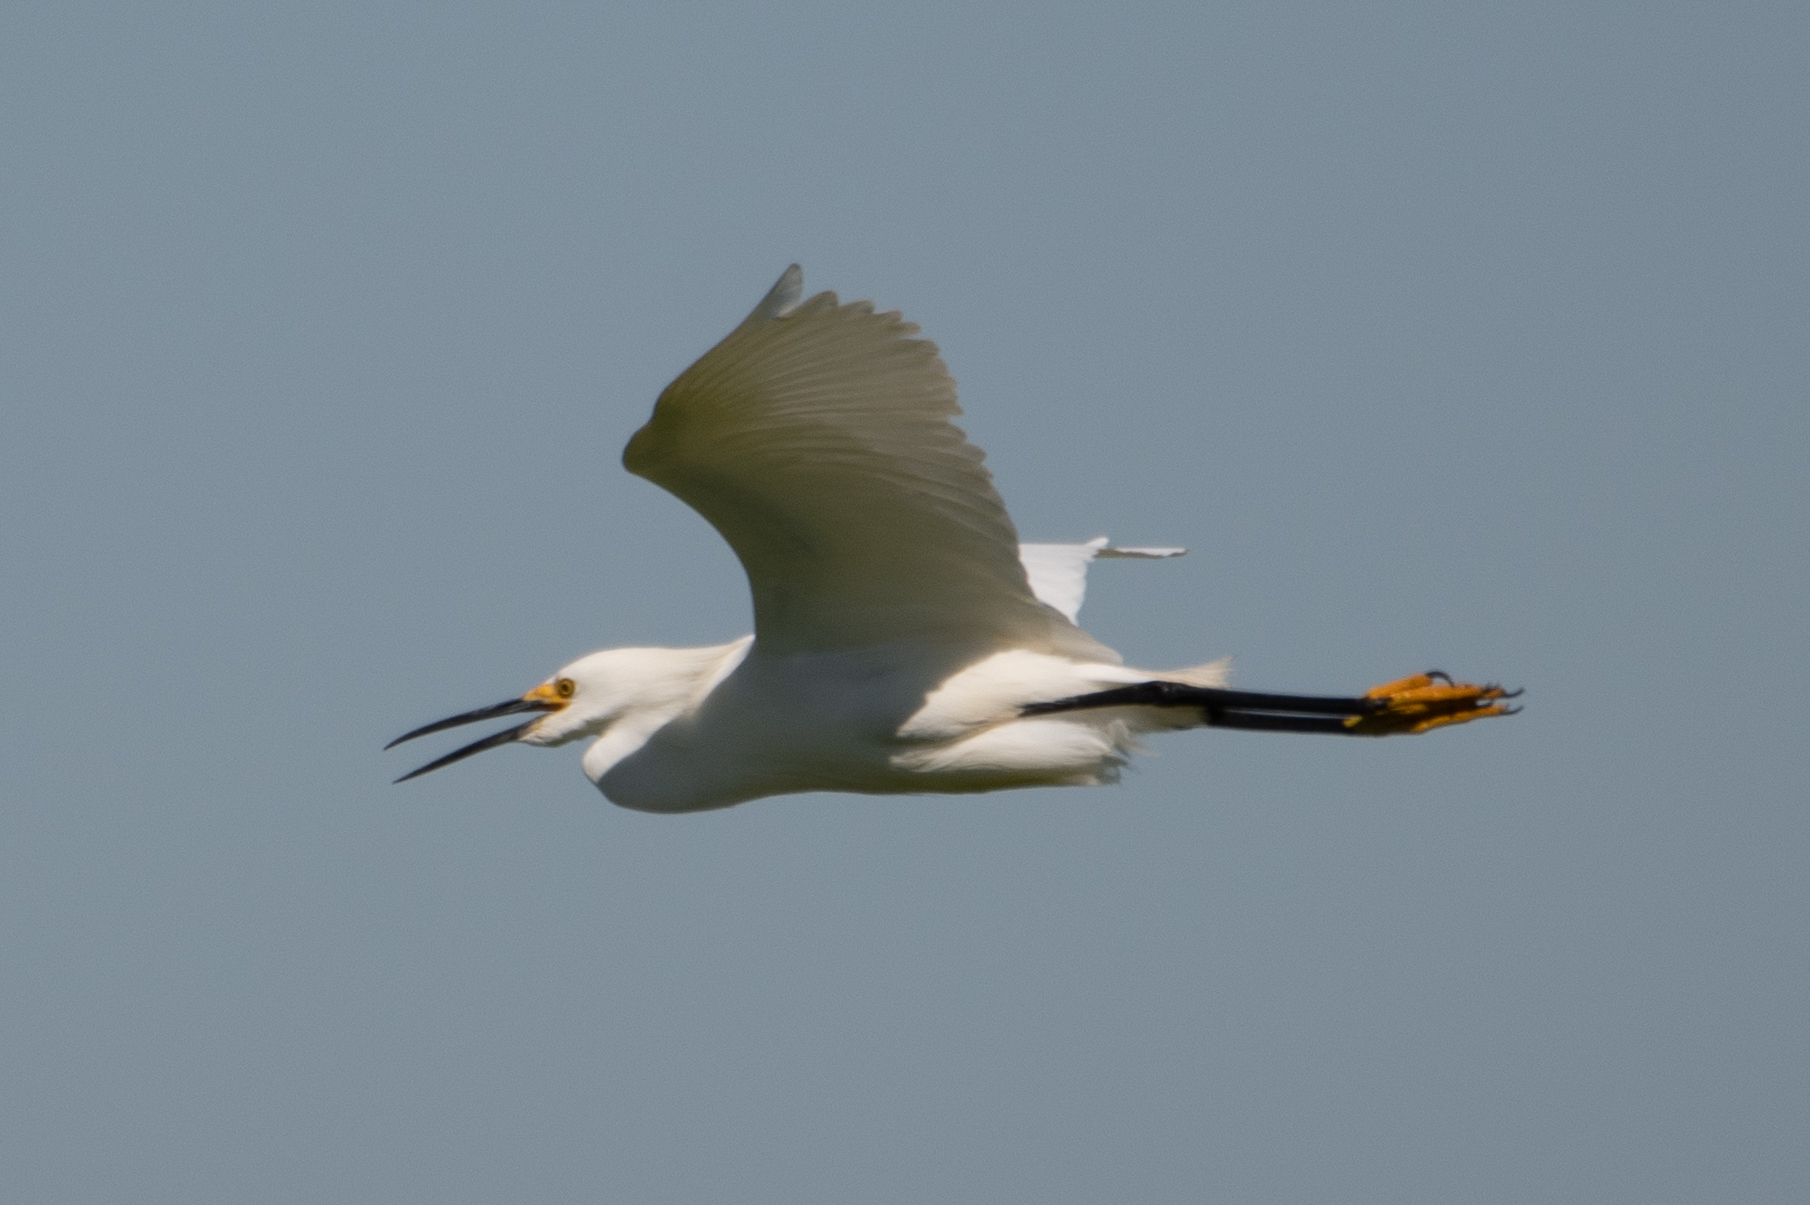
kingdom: Animalia
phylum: Chordata
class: Aves
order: Pelecaniformes
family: Ardeidae
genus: Egretta
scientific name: Egretta thula
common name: Snowy egret
